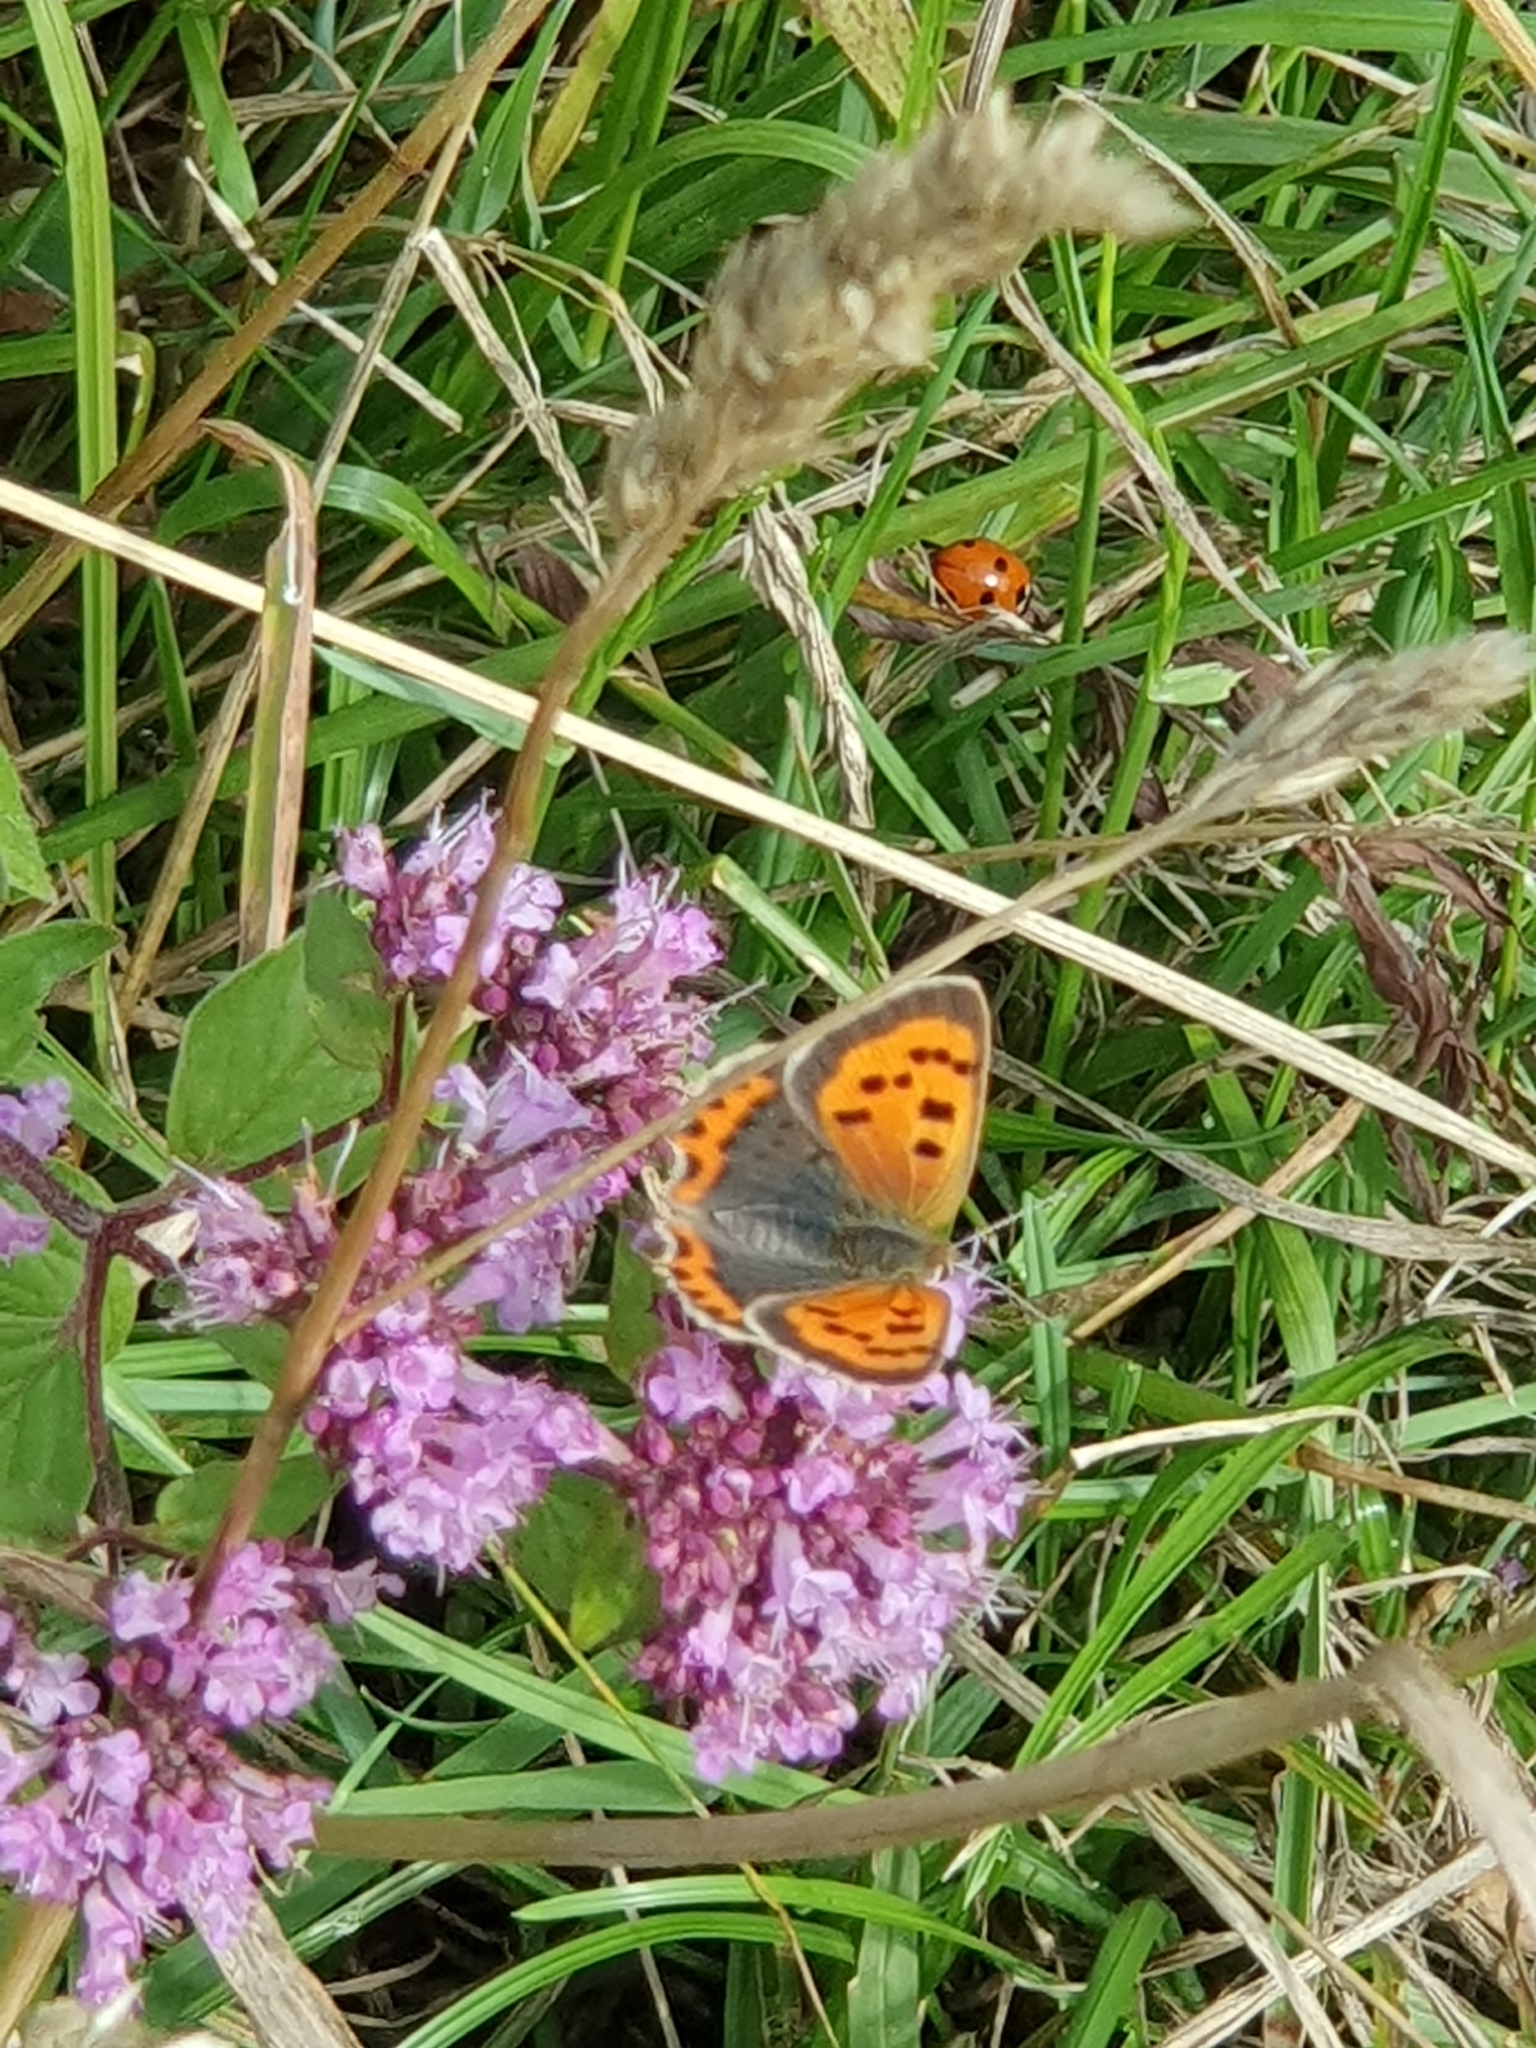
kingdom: Animalia
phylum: Arthropoda
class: Insecta
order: Lepidoptera
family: Lycaenidae
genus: Lycaena
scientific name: Lycaena phlaeas
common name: Small copper
